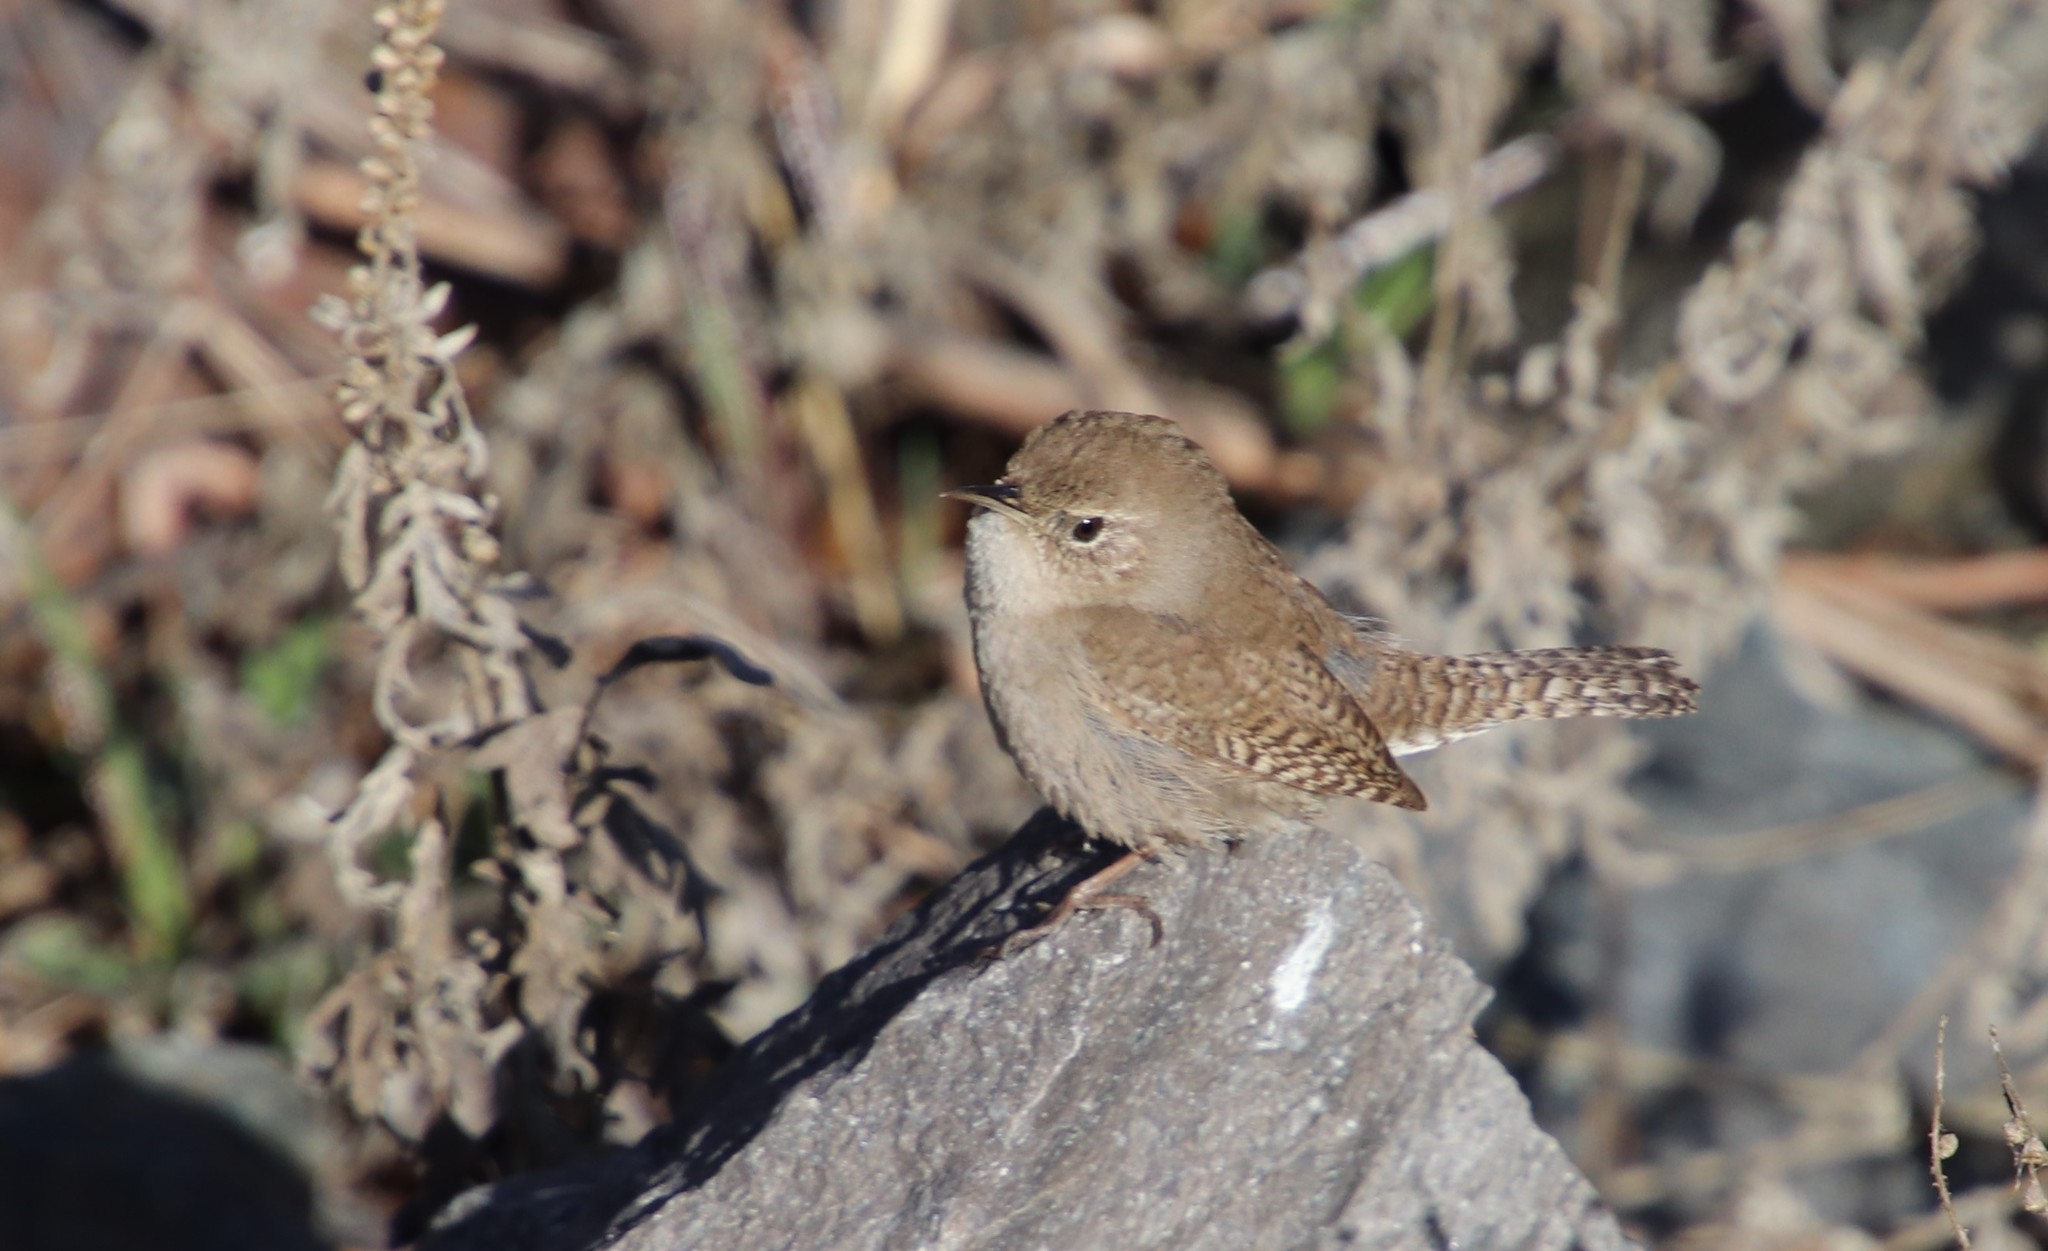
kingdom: Animalia
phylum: Chordata
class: Aves
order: Passeriformes
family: Troglodytidae
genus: Troglodytes
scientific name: Troglodytes aedon
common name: House wren
